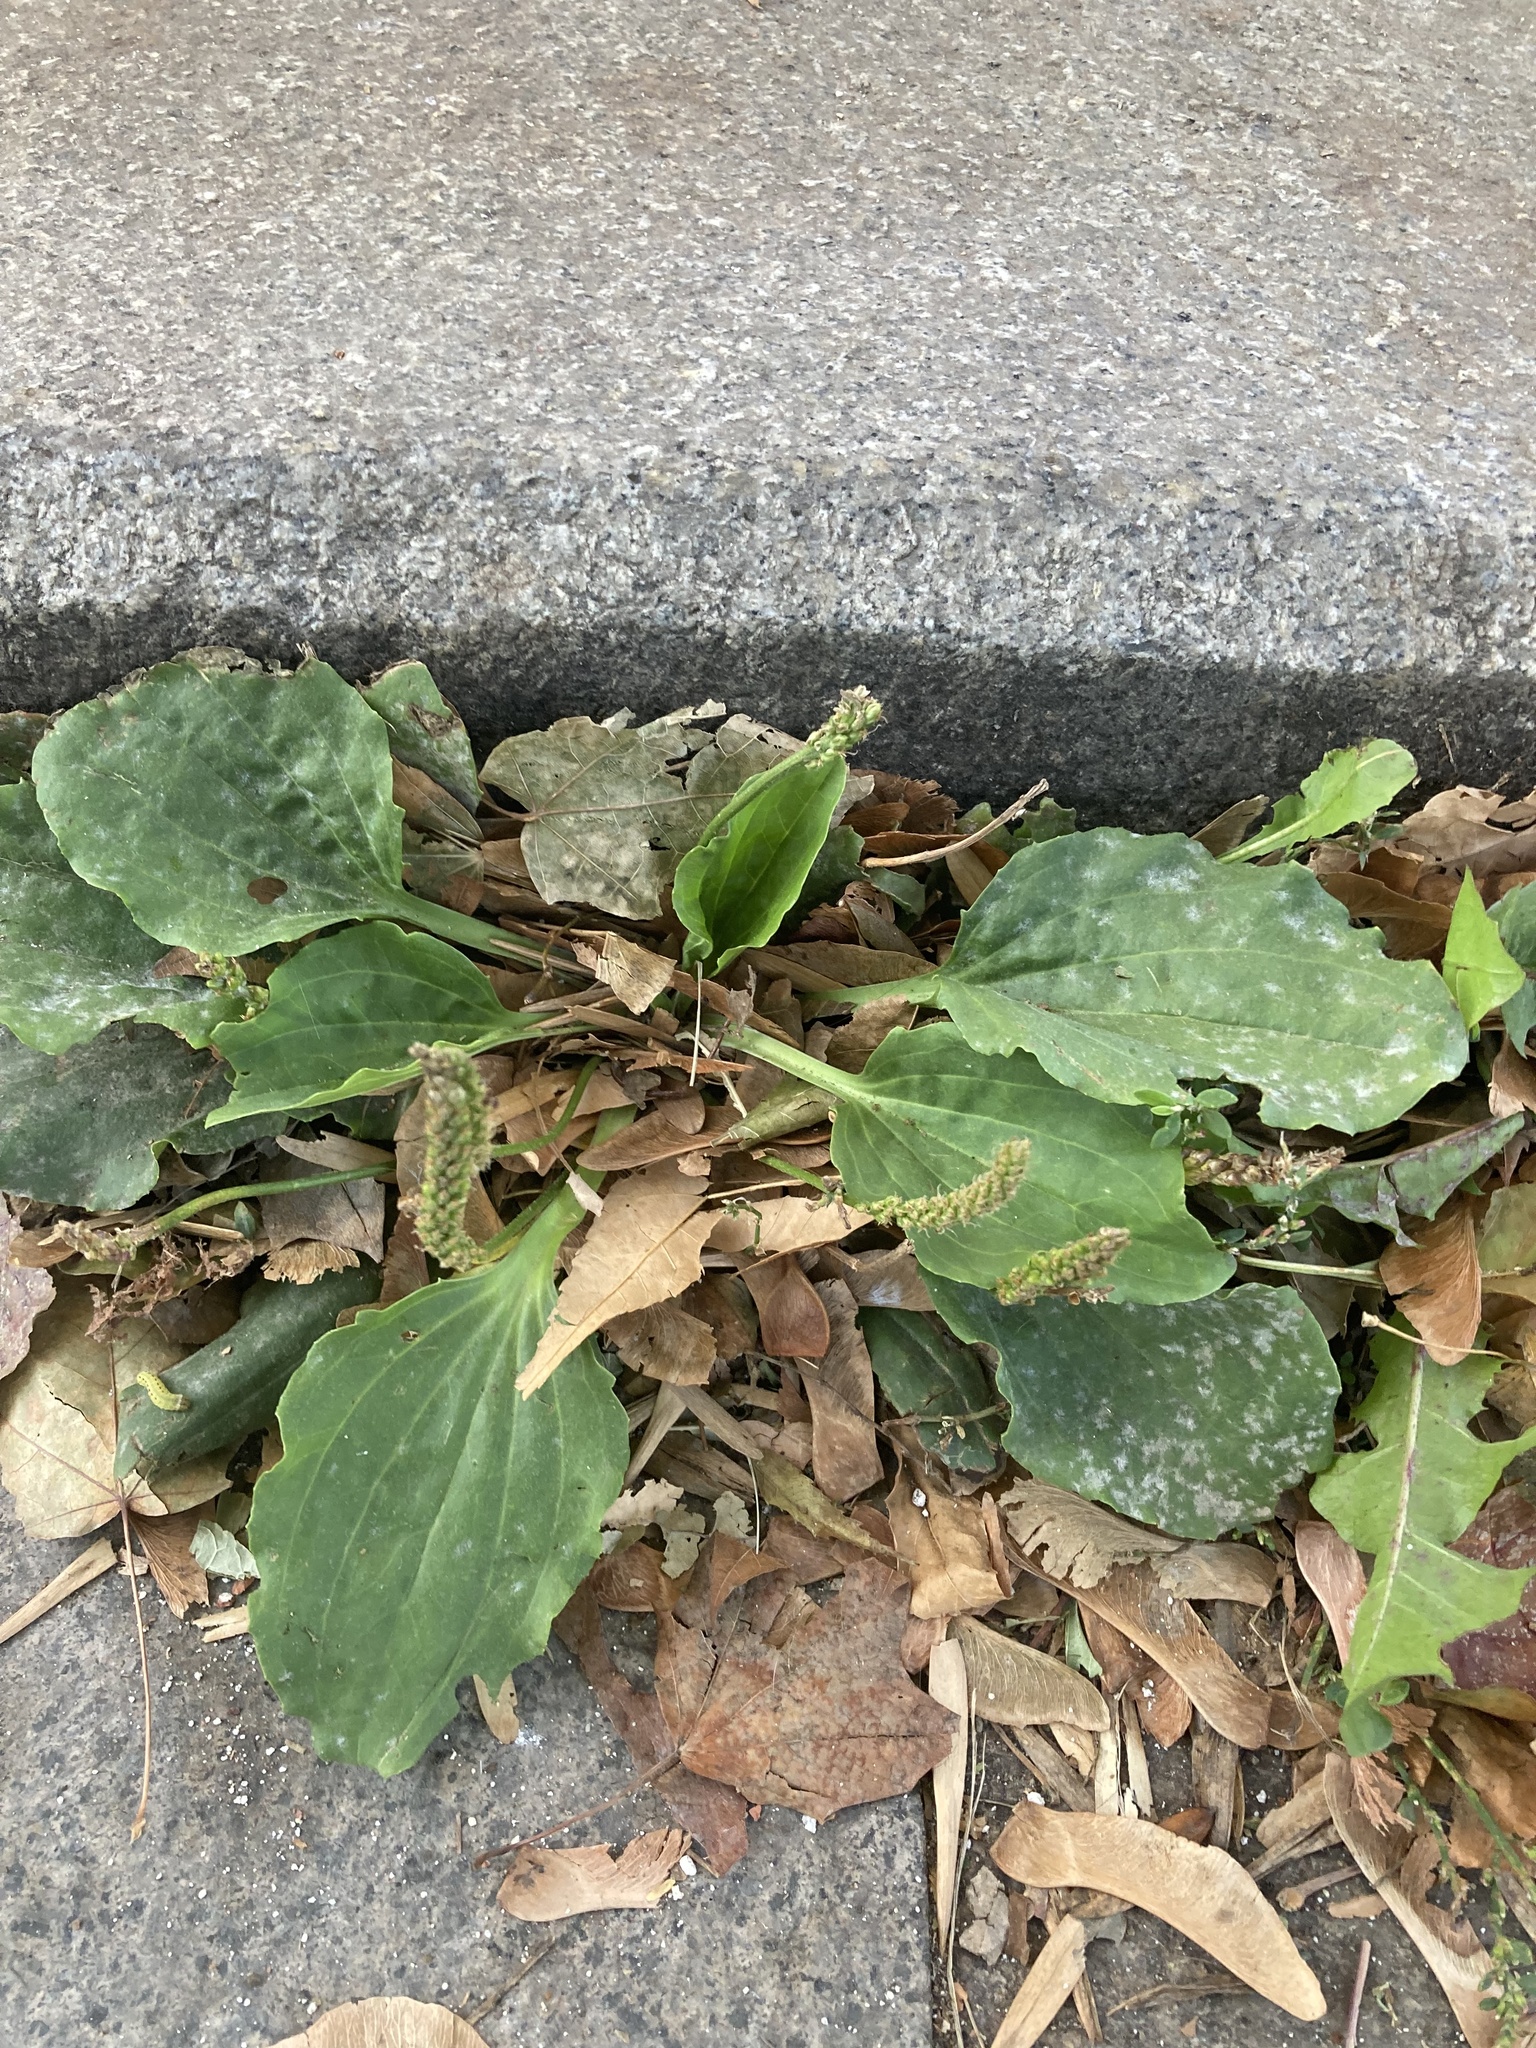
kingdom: Plantae
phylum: Tracheophyta
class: Magnoliopsida
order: Lamiales
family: Plantaginaceae
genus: Plantago
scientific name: Plantago major
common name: Common plantain
